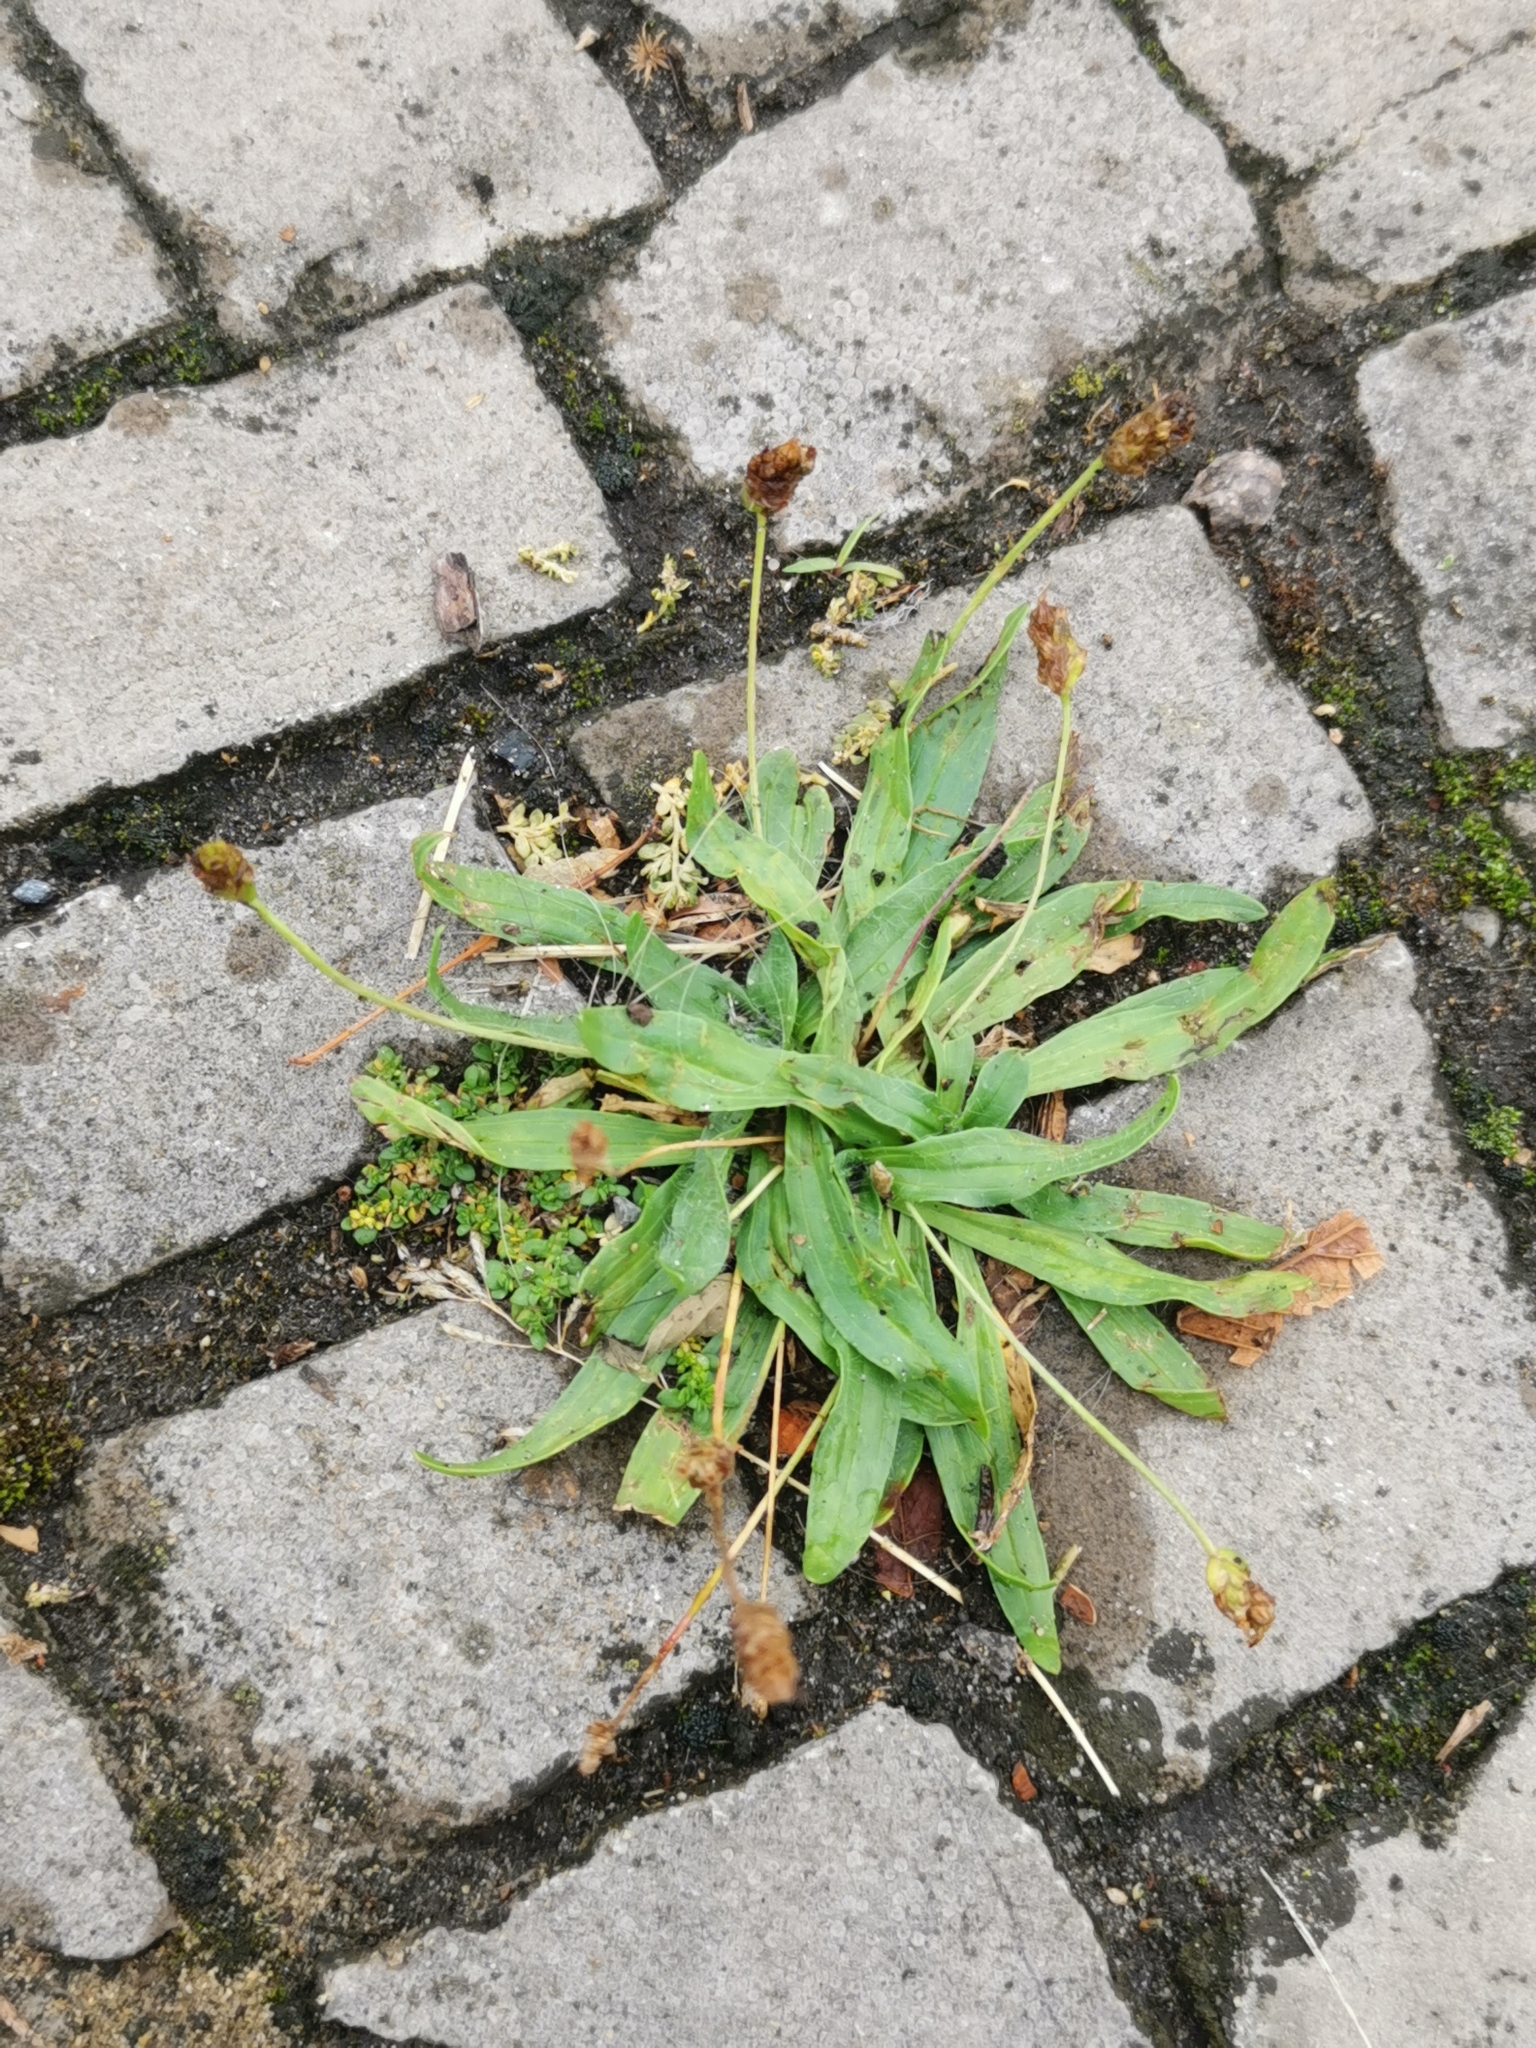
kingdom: Plantae
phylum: Tracheophyta
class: Magnoliopsida
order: Lamiales
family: Plantaginaceae
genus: Plantago
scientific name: Plantago lanceolata
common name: Ribwort plantain
